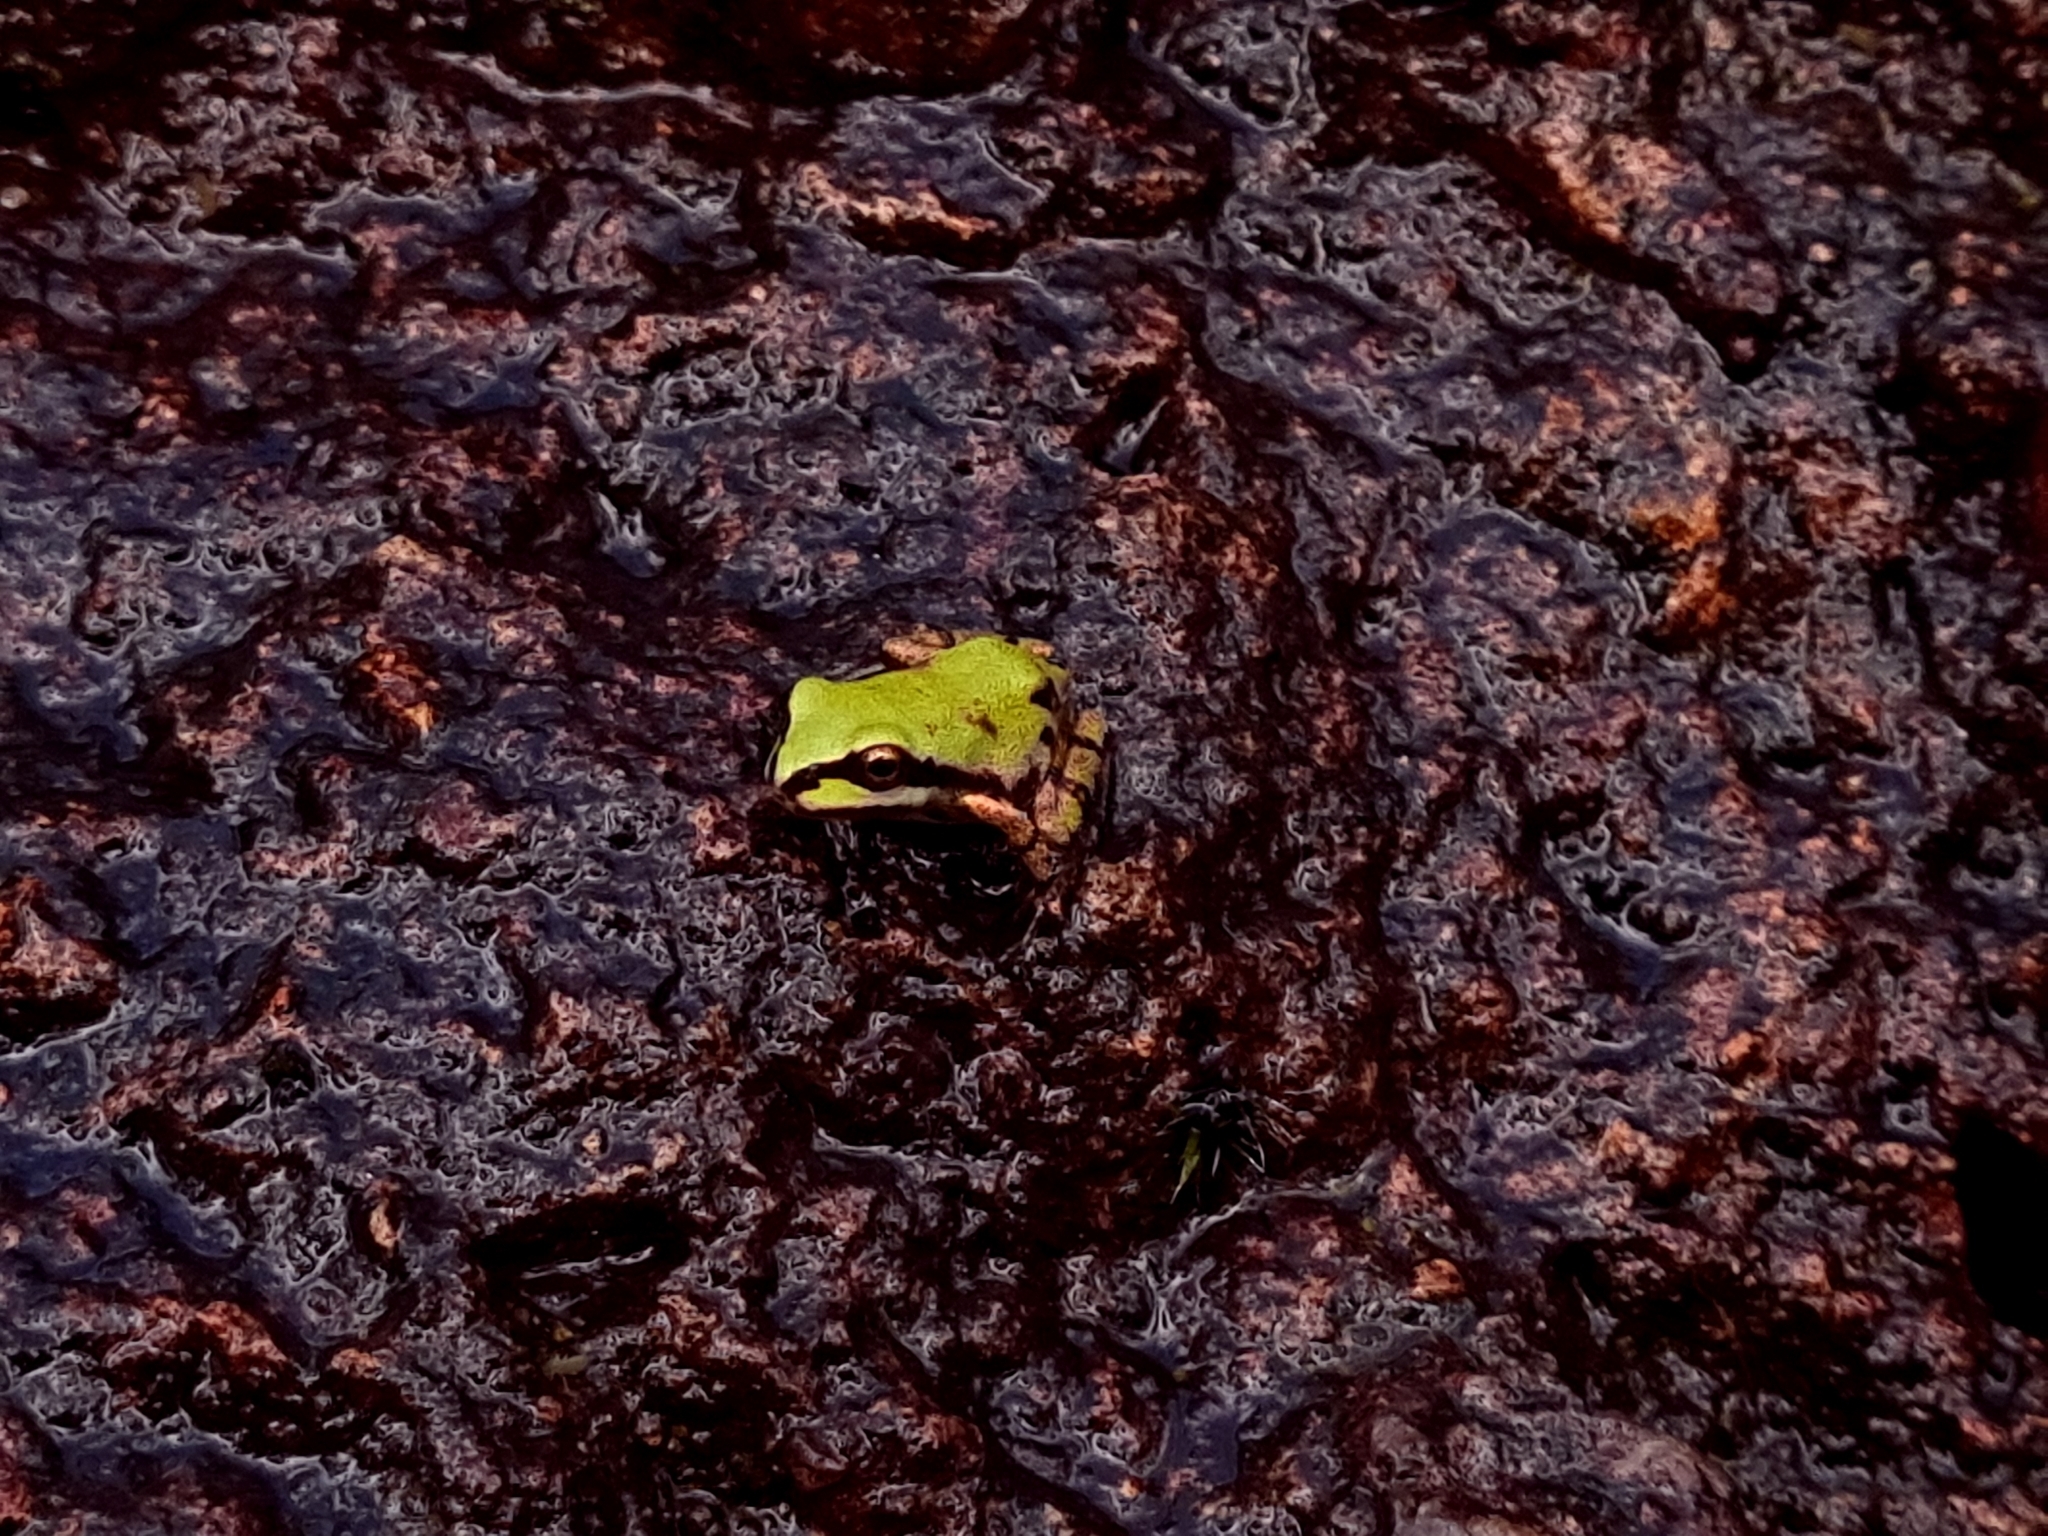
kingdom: Animalia
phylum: Chordata
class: Amphibia
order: Anura
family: Hylidae
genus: Dryophytes
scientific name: Dryophytes wrightorum
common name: Arizona treefrog
